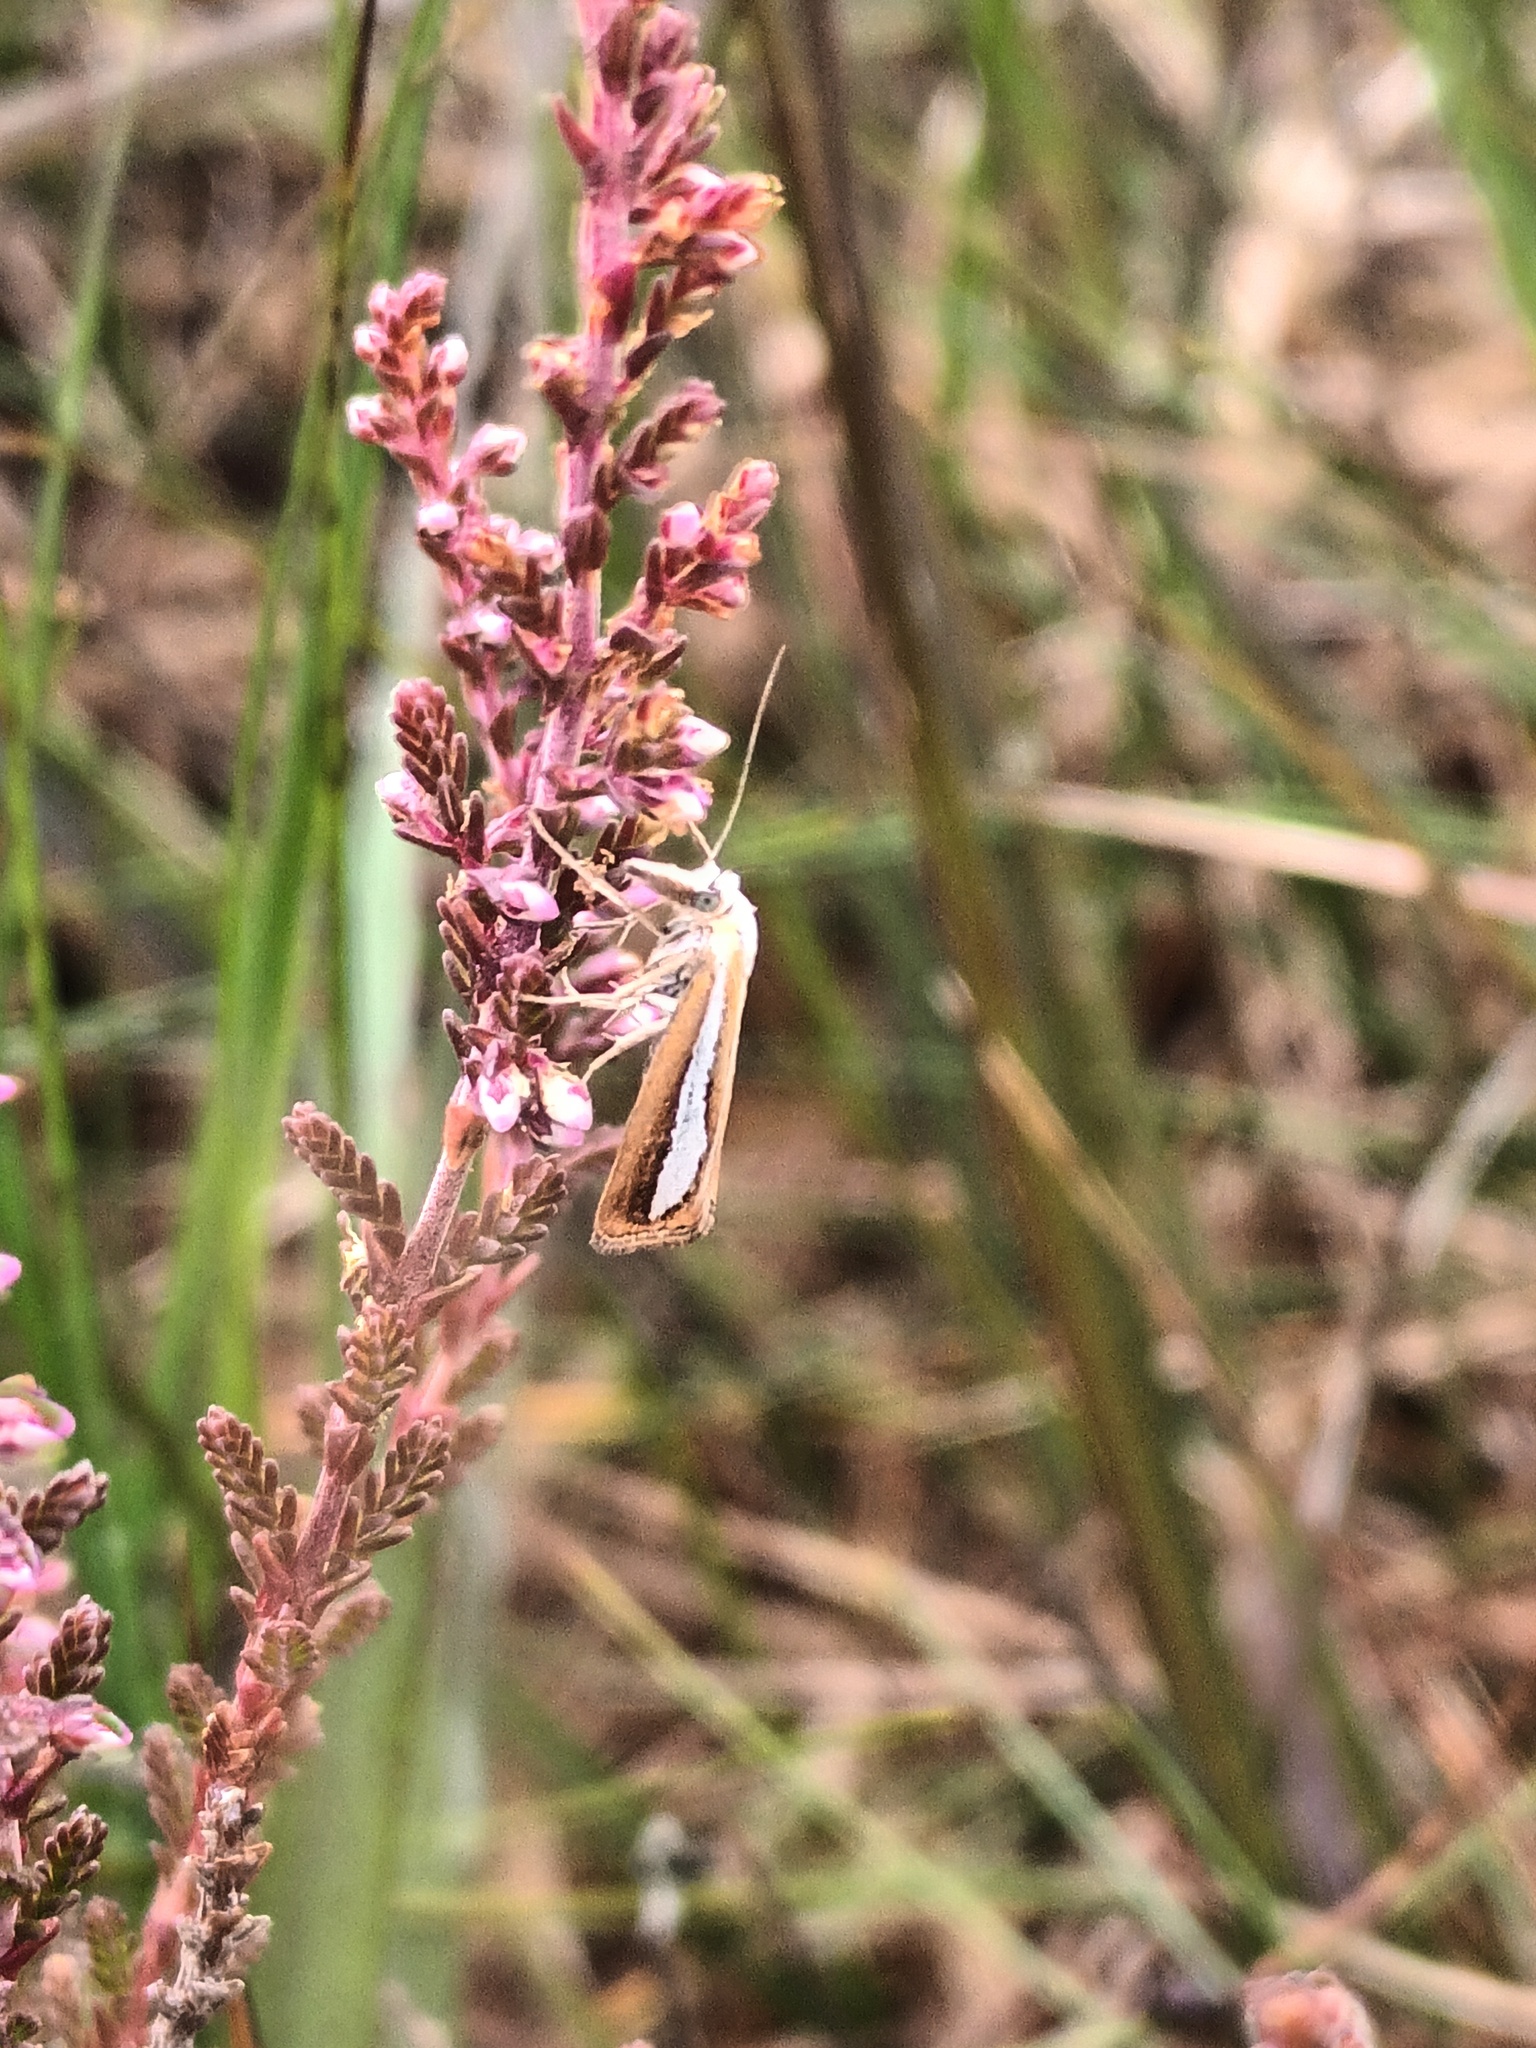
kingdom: Animalia
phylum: Arthropoda
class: Insecta
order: Lepidoptera
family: Crambidae
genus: Catoptria
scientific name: Catoptria margaritellus
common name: Pearl-band grass veneer
